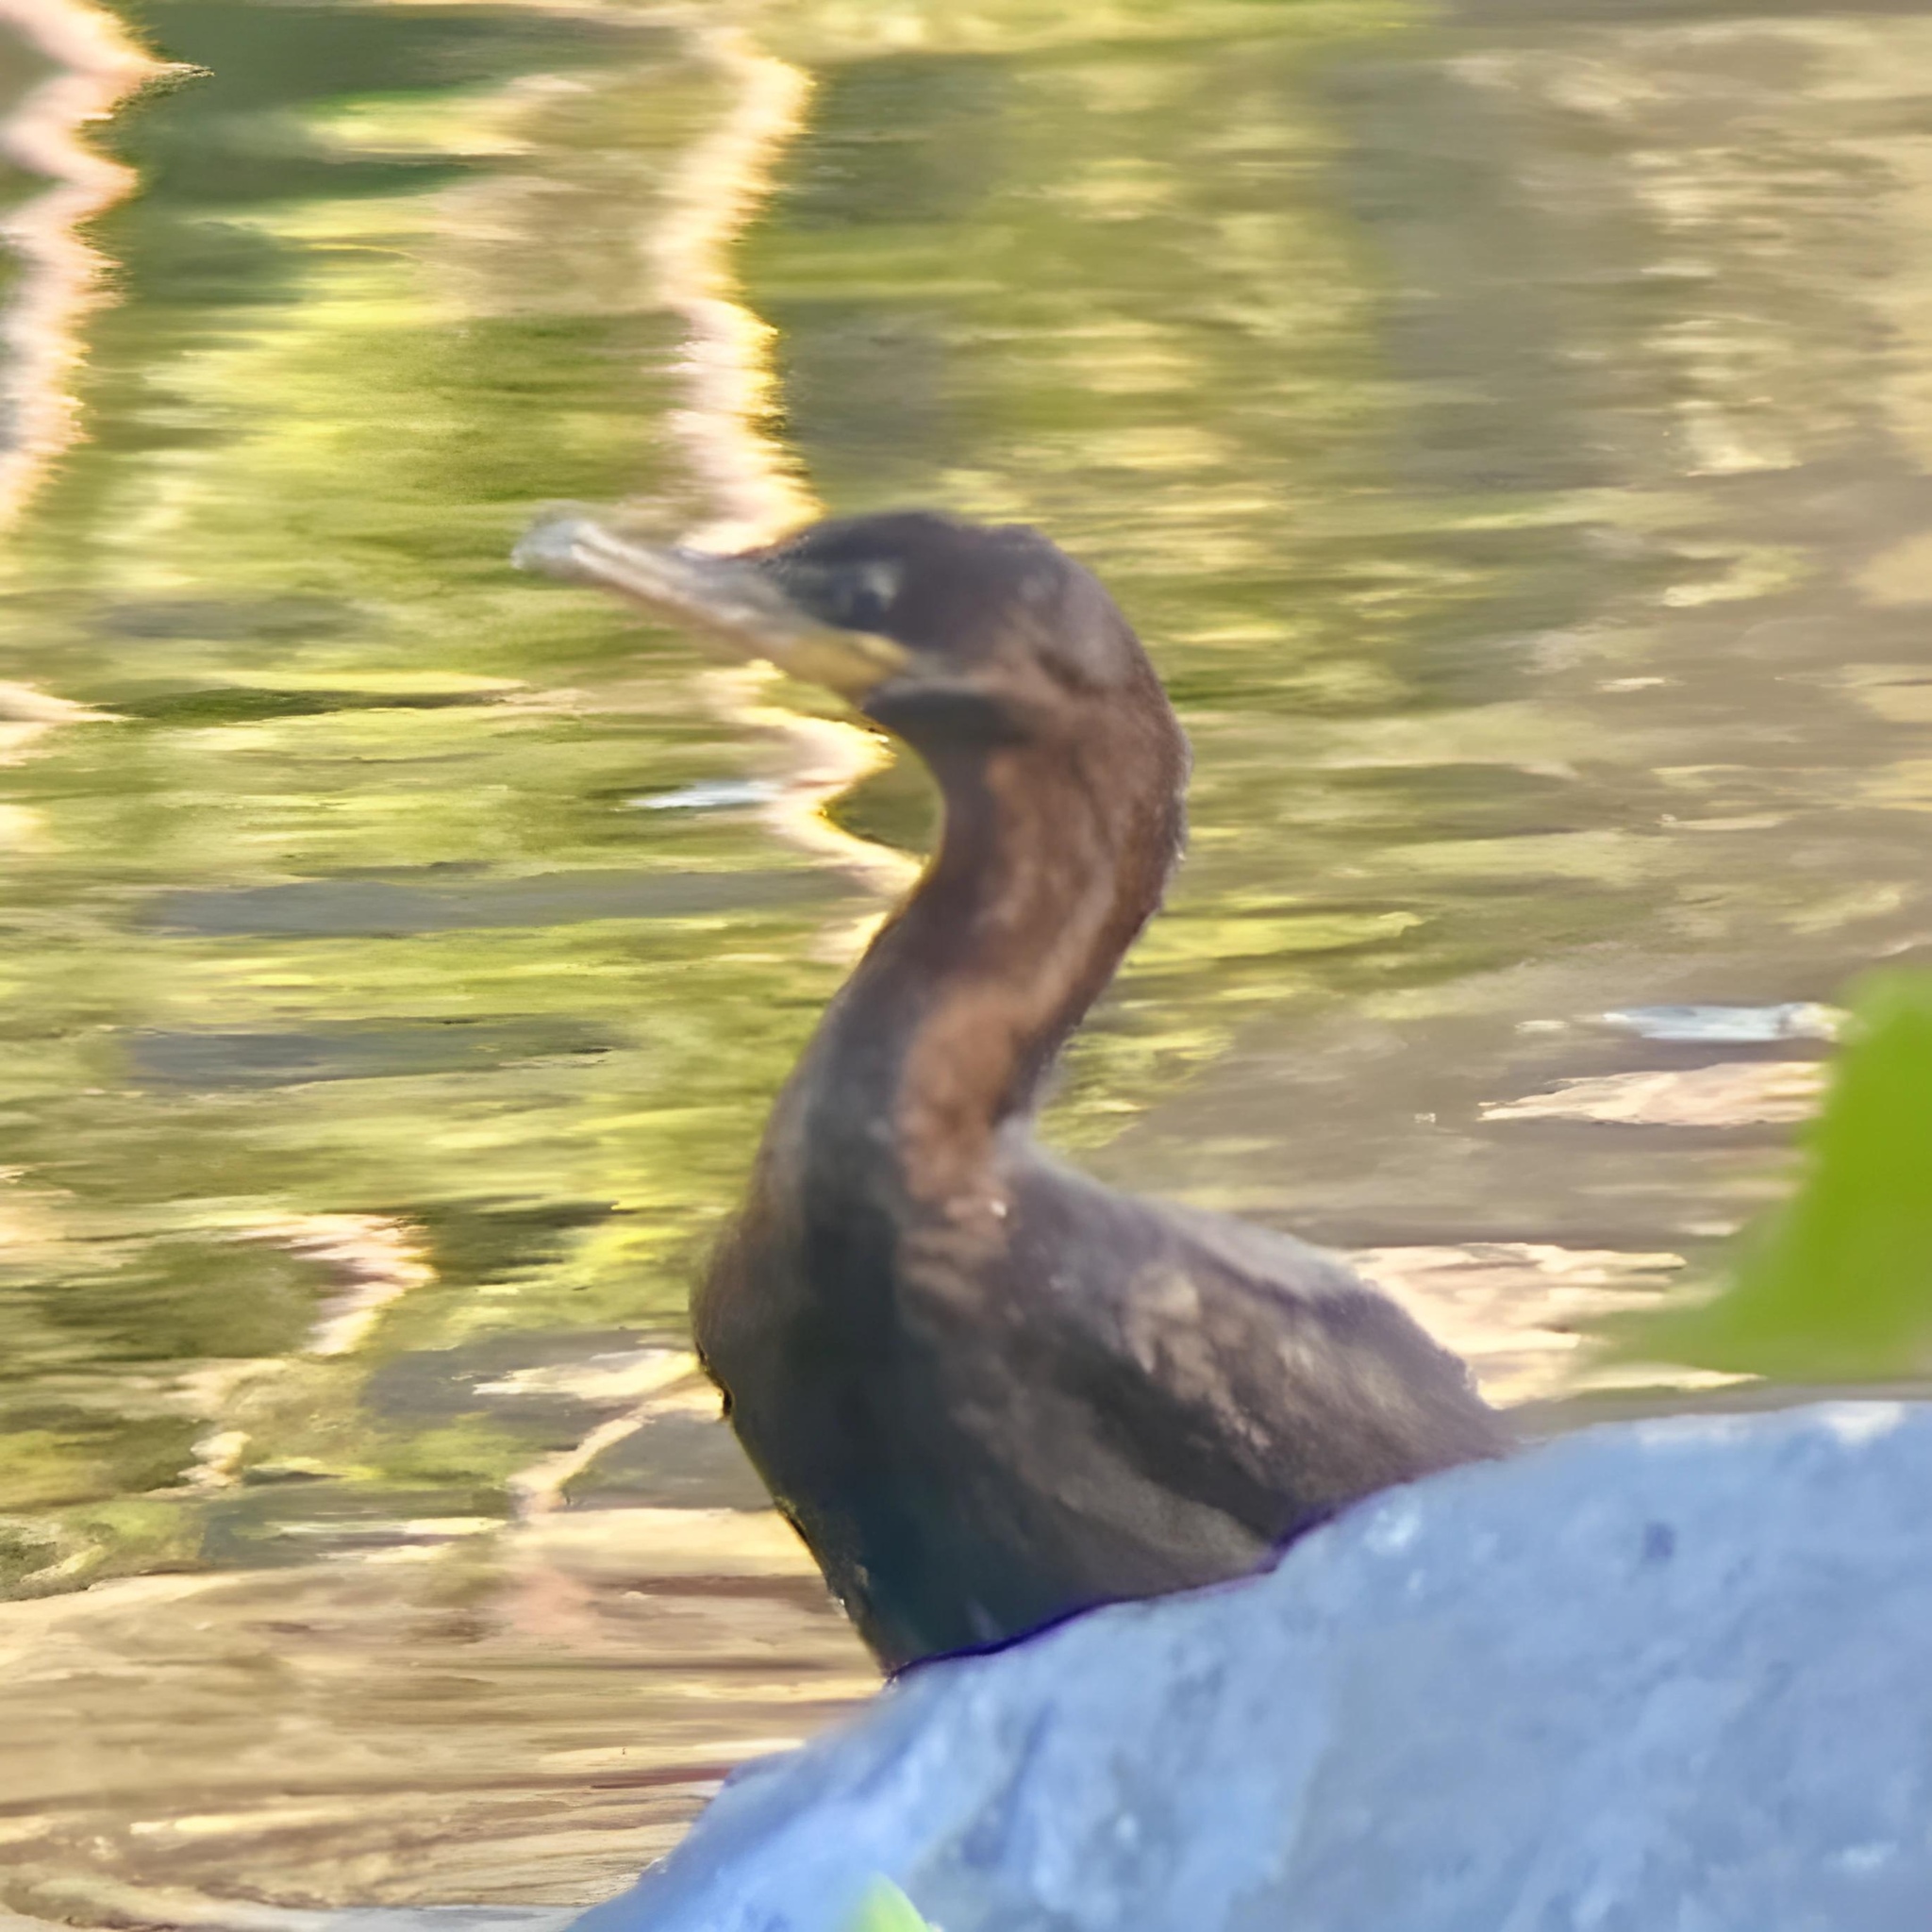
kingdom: Animalia
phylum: Chordata
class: Aves
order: Suliformes
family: Phalacrocoracidae
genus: Phalacrocorax
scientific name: Phalacrocorax brasilianus
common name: Neotropic cormorant
